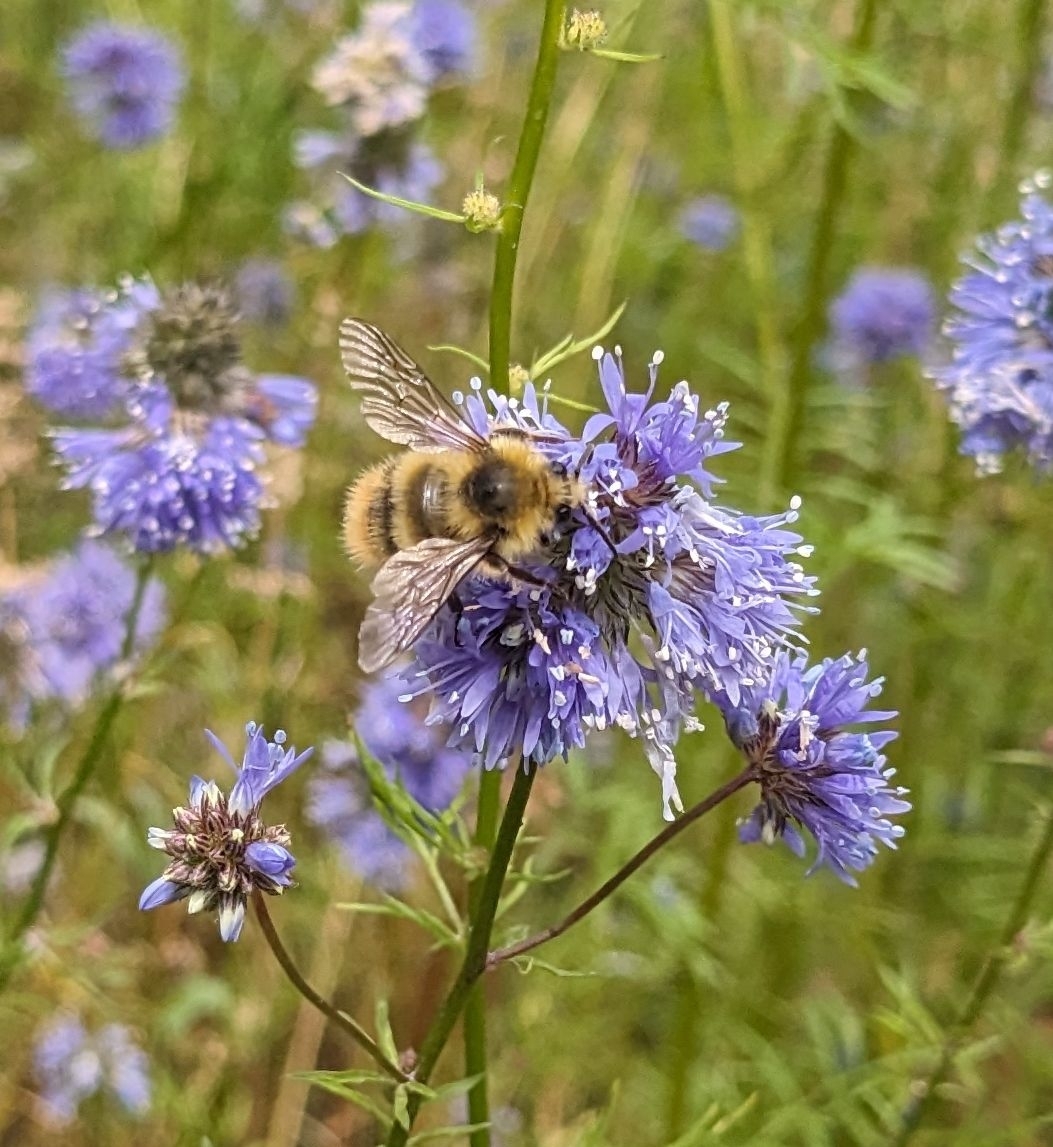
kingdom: Animalia
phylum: Arthropoda
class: Insecta
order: Hymenoptera
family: Apidae
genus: Bombus
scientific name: Bombus mixtus
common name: Fuzzy-horned bumble bee
